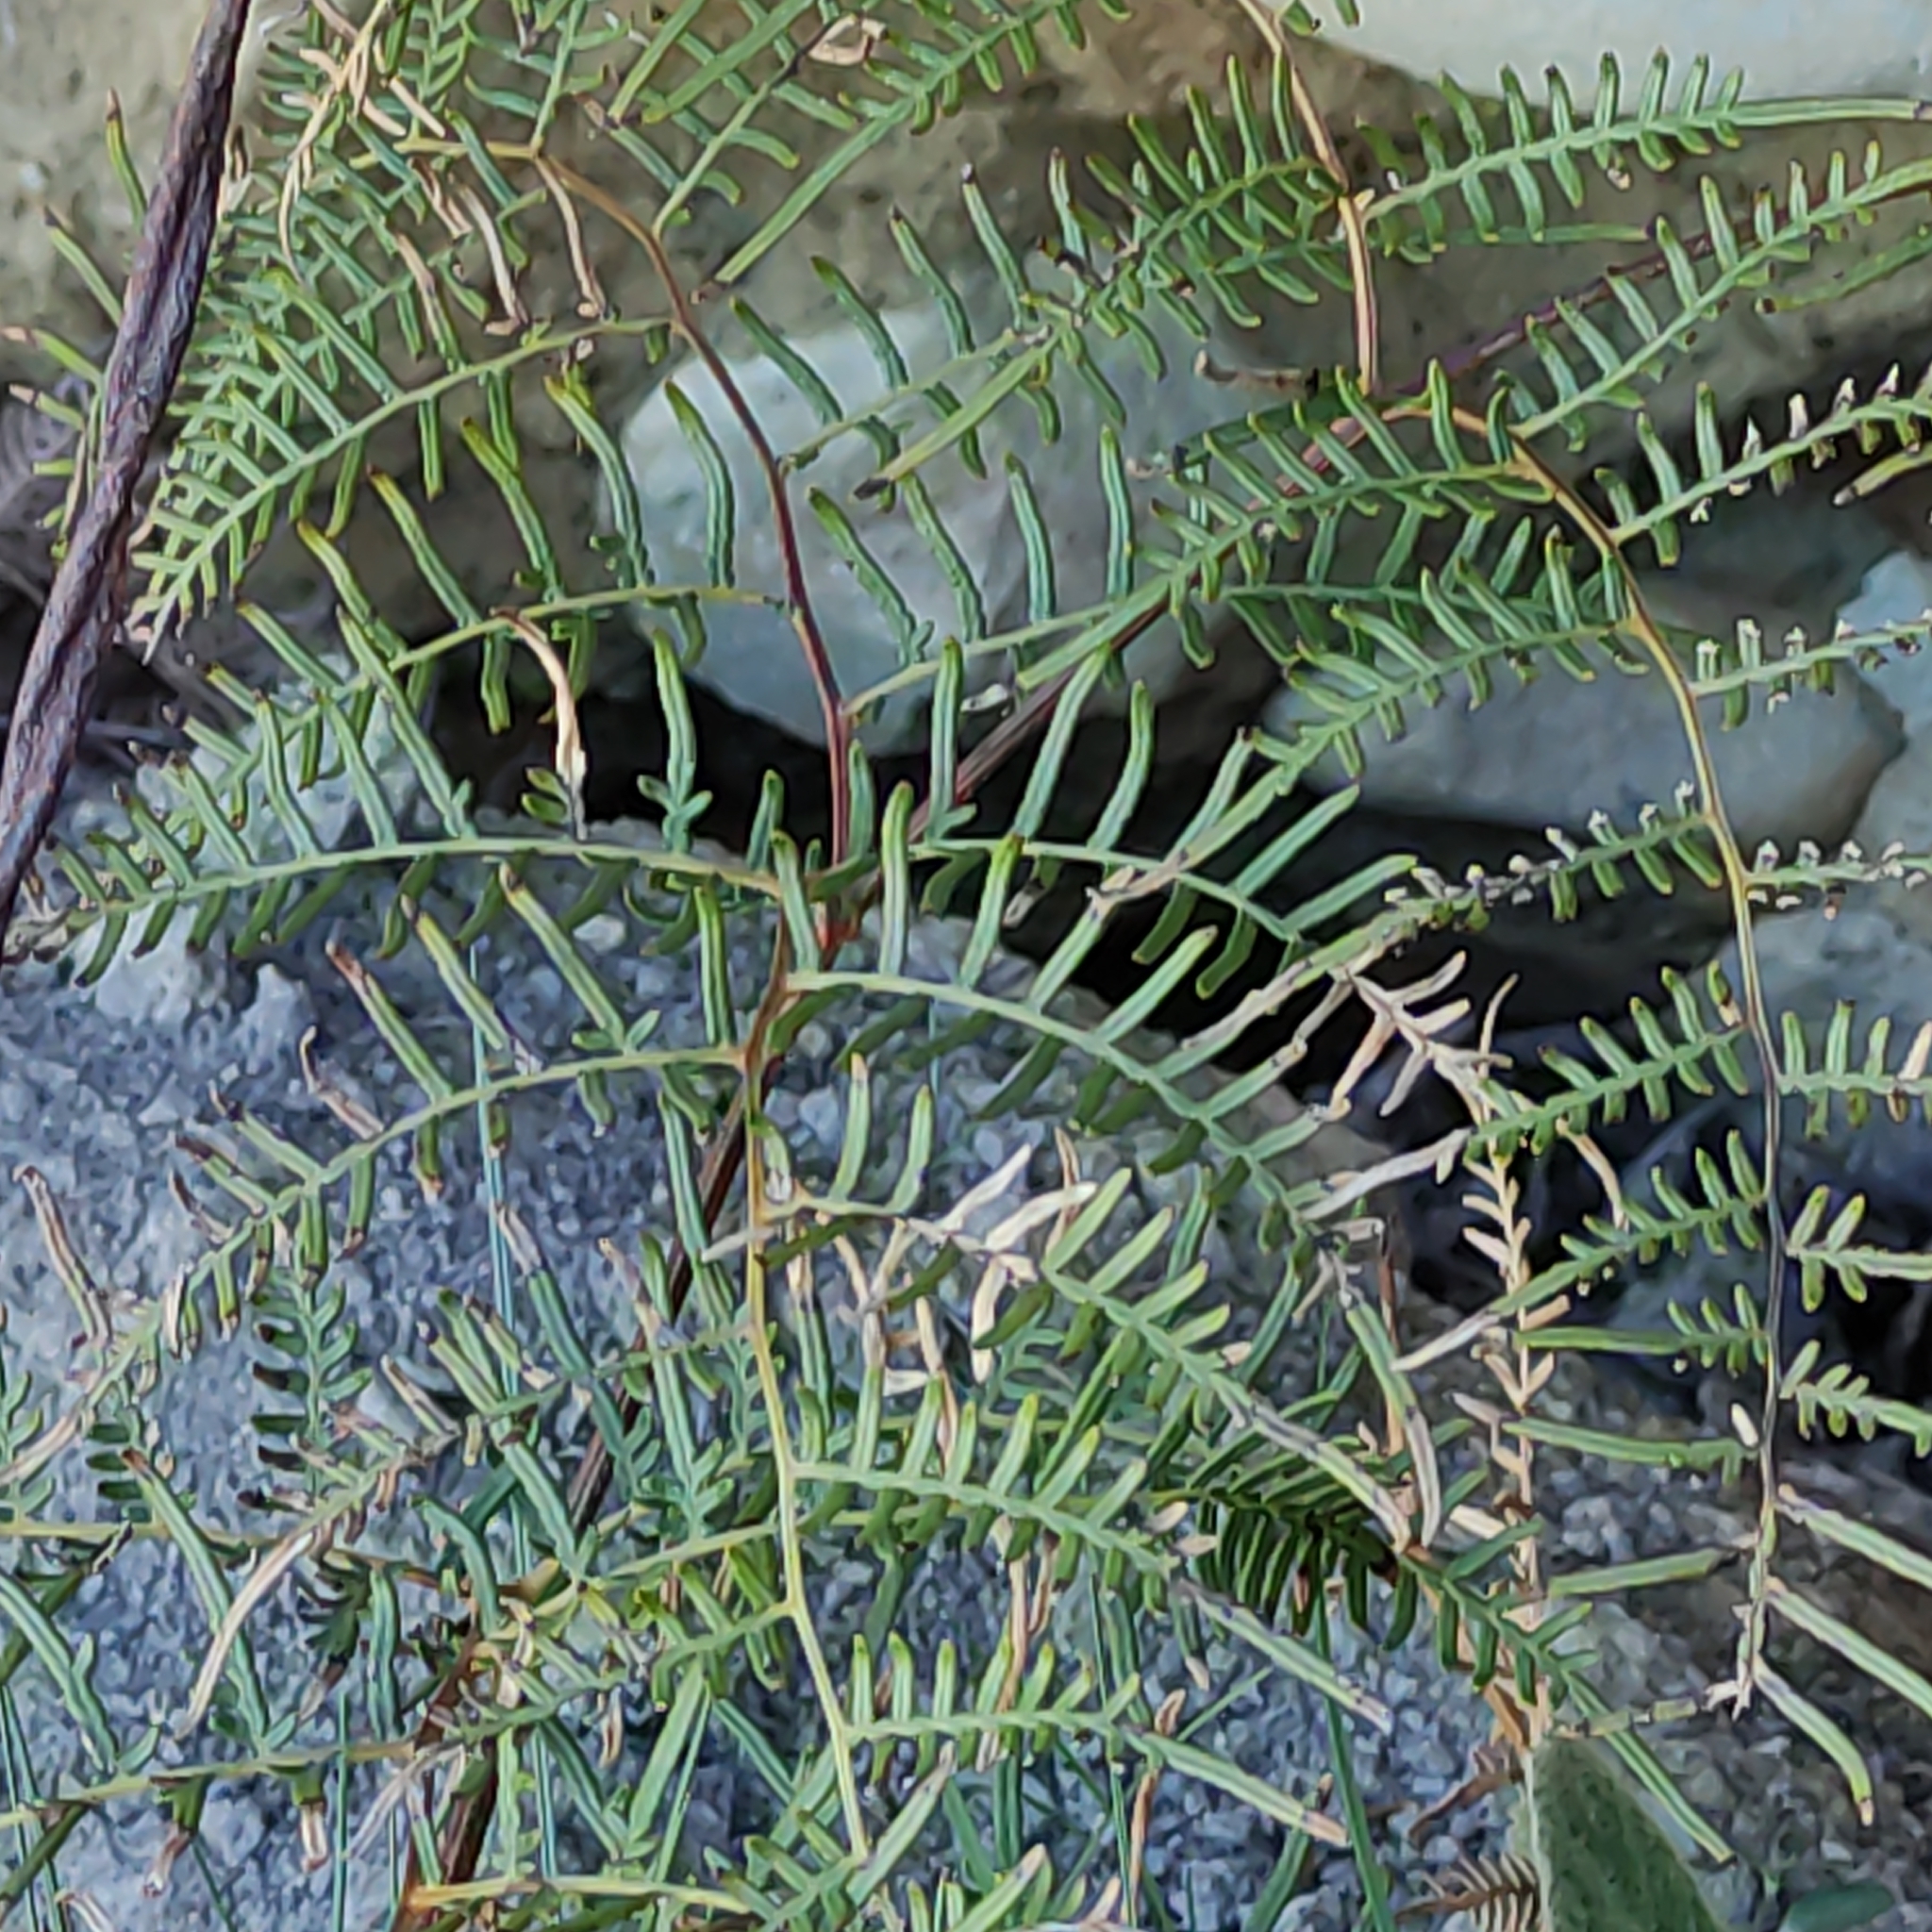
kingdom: Plantae
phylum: Tracheophyta
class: Polypodiopsida
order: Polypodiales
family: Dennstaedtiaceae
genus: Pteridium
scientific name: Pteridium esculentum
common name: Bracken fern
